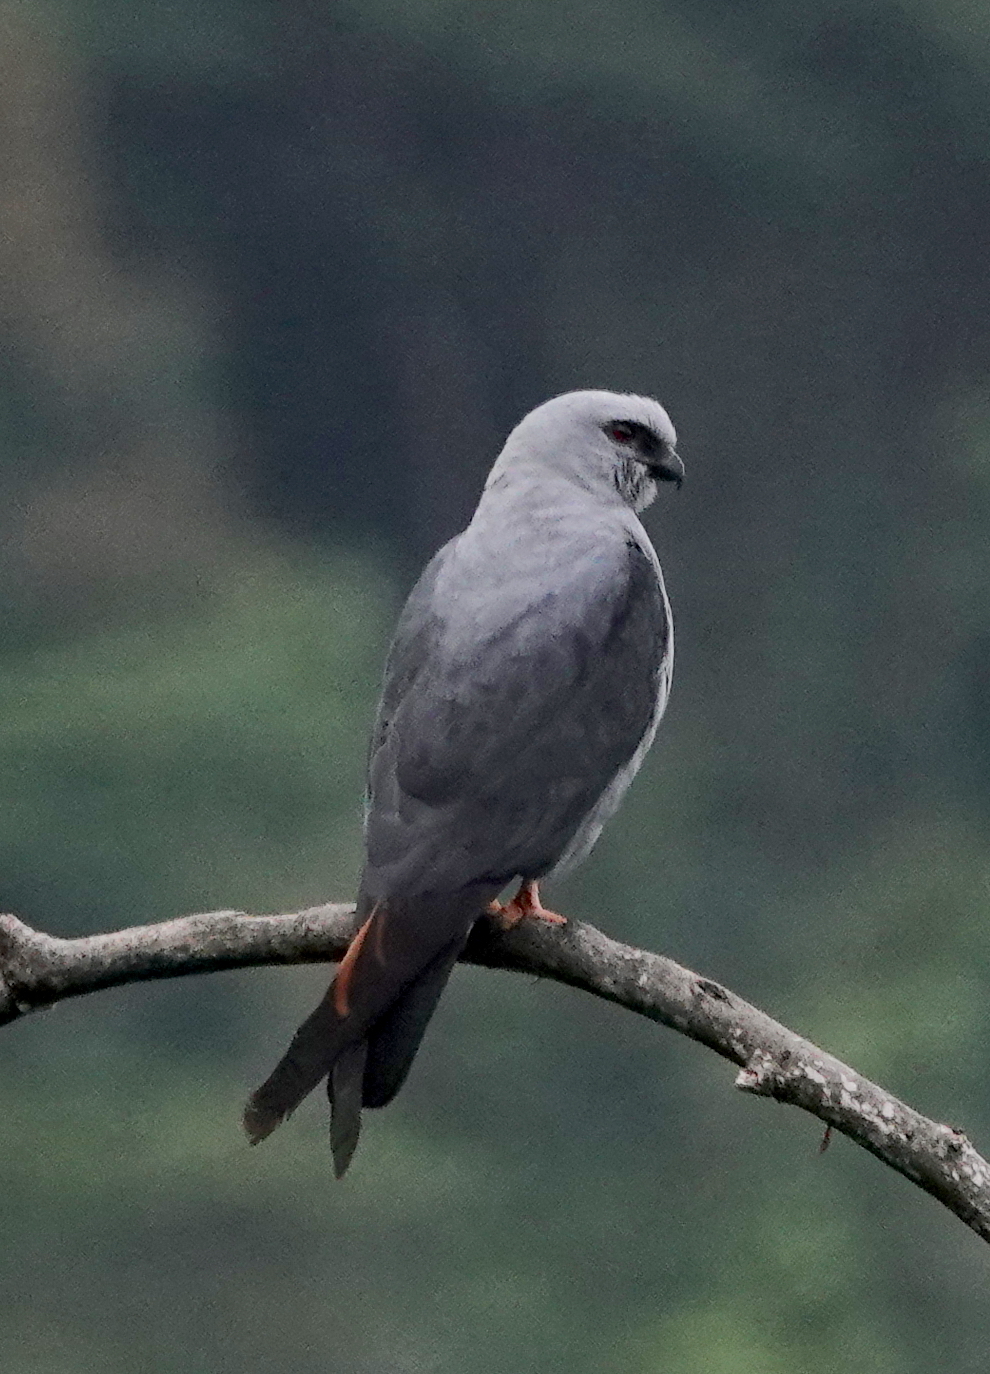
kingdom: Animalia
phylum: Chordata
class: Aves
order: Accipitriformes
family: Accipitridae
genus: Ictinia
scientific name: Ictinia plumbea
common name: Plumbeous kite
